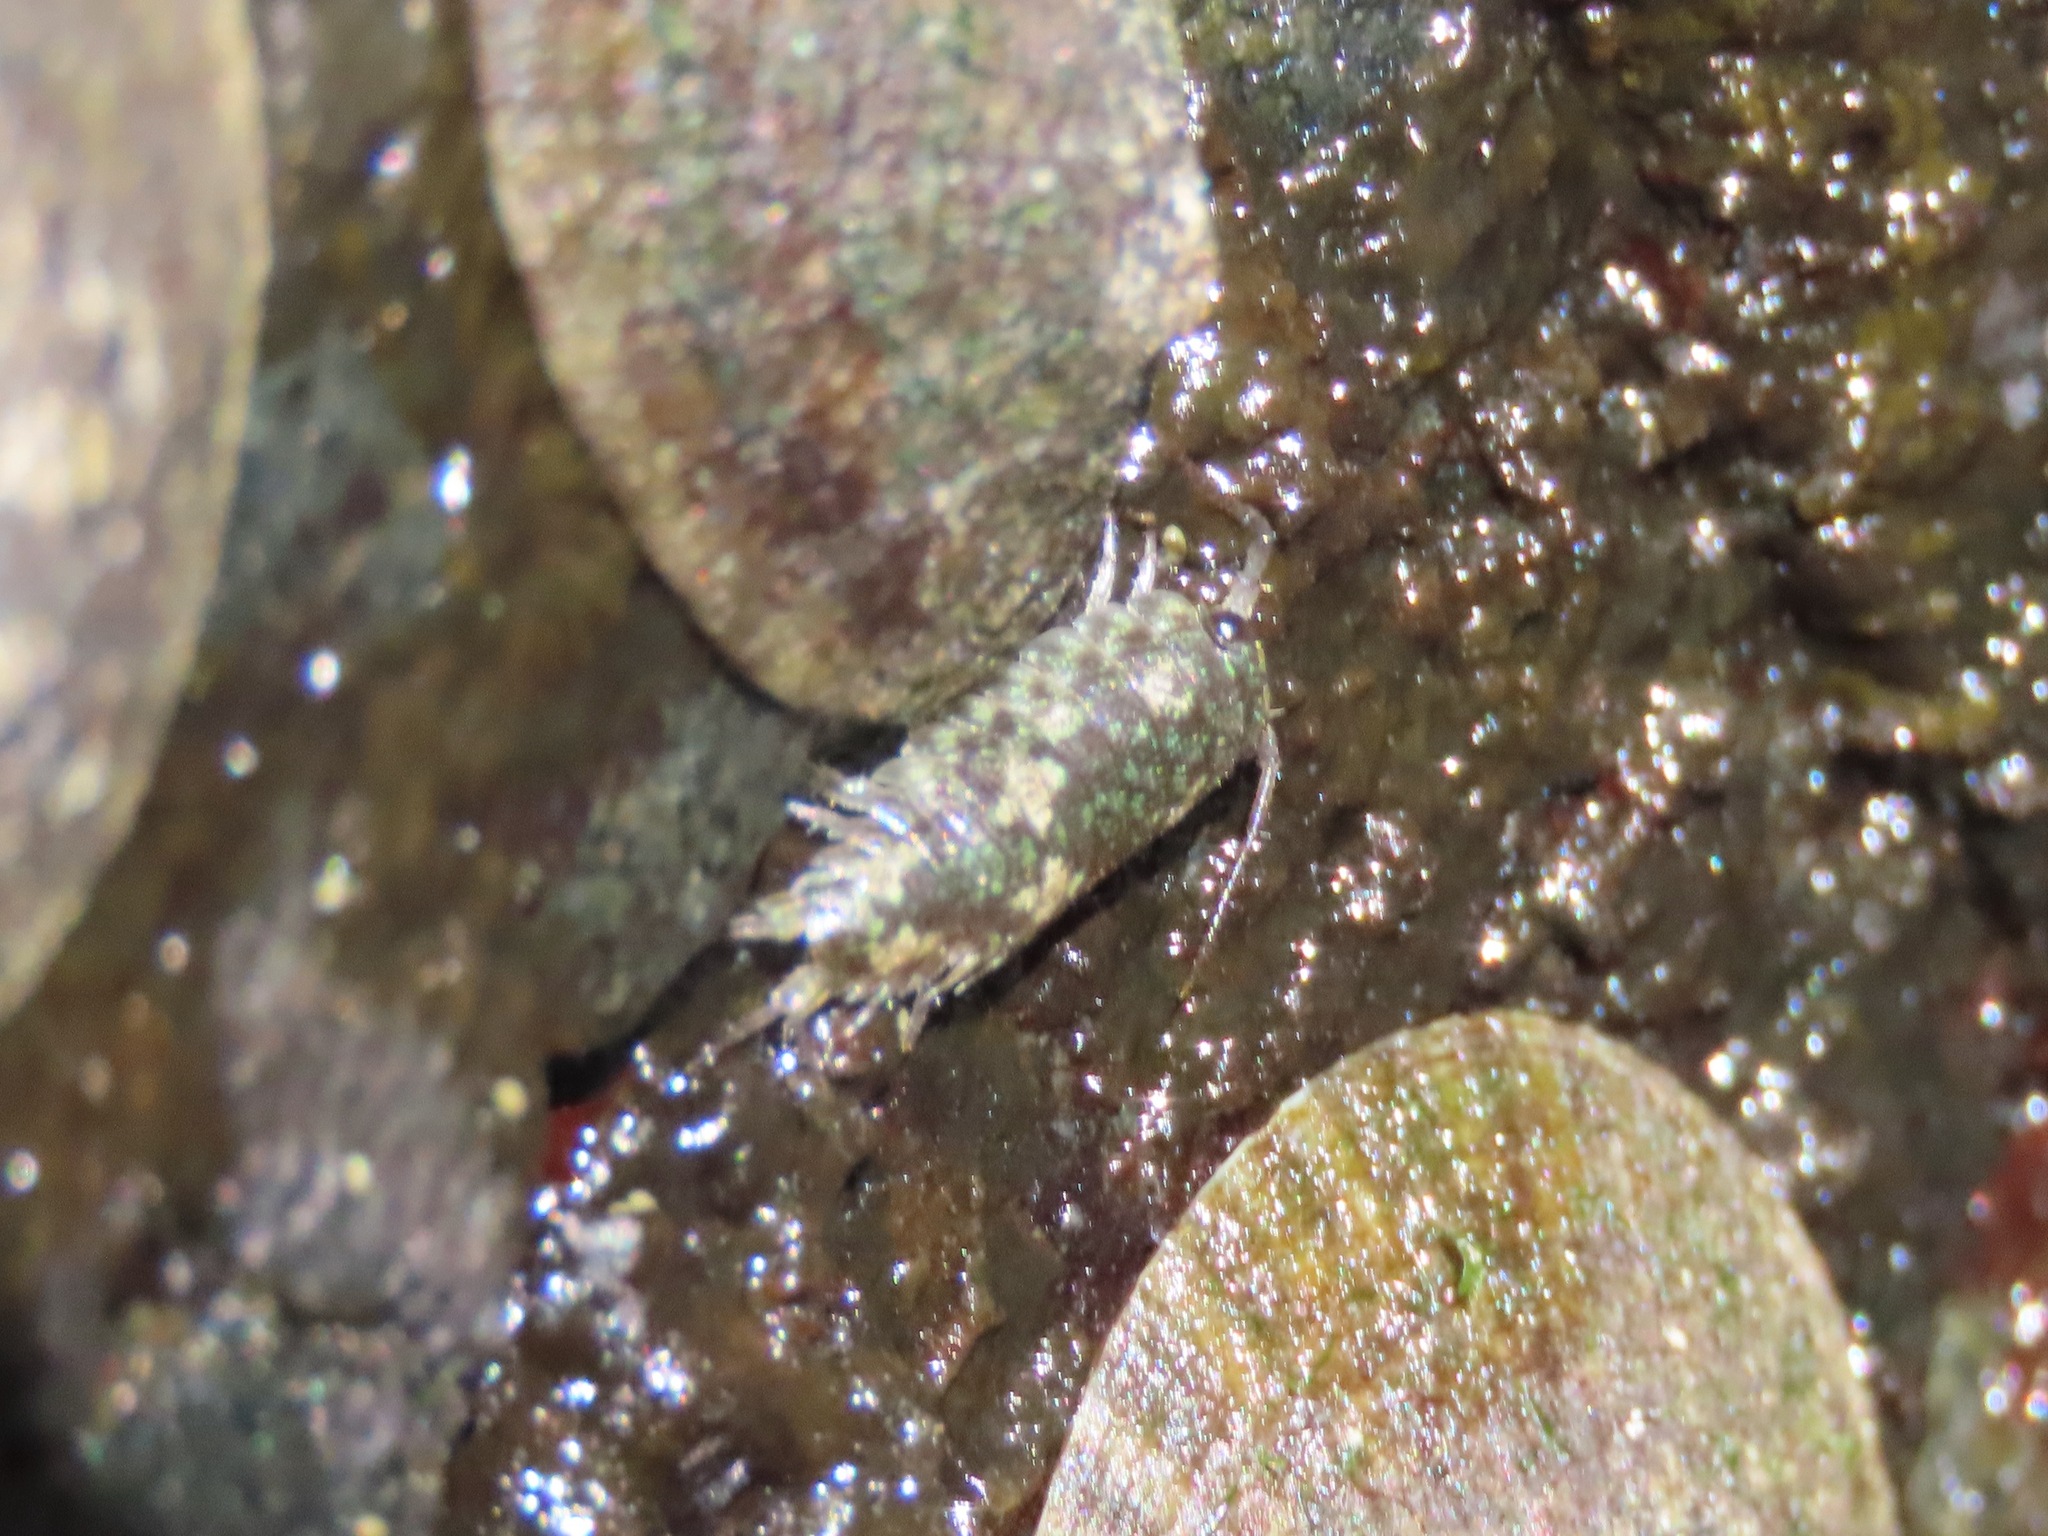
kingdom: Animalia
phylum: Arthropoda
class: Malacostraca
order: Isopoda
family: Ligiidae
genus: Ligia
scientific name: Ligia pallasii
